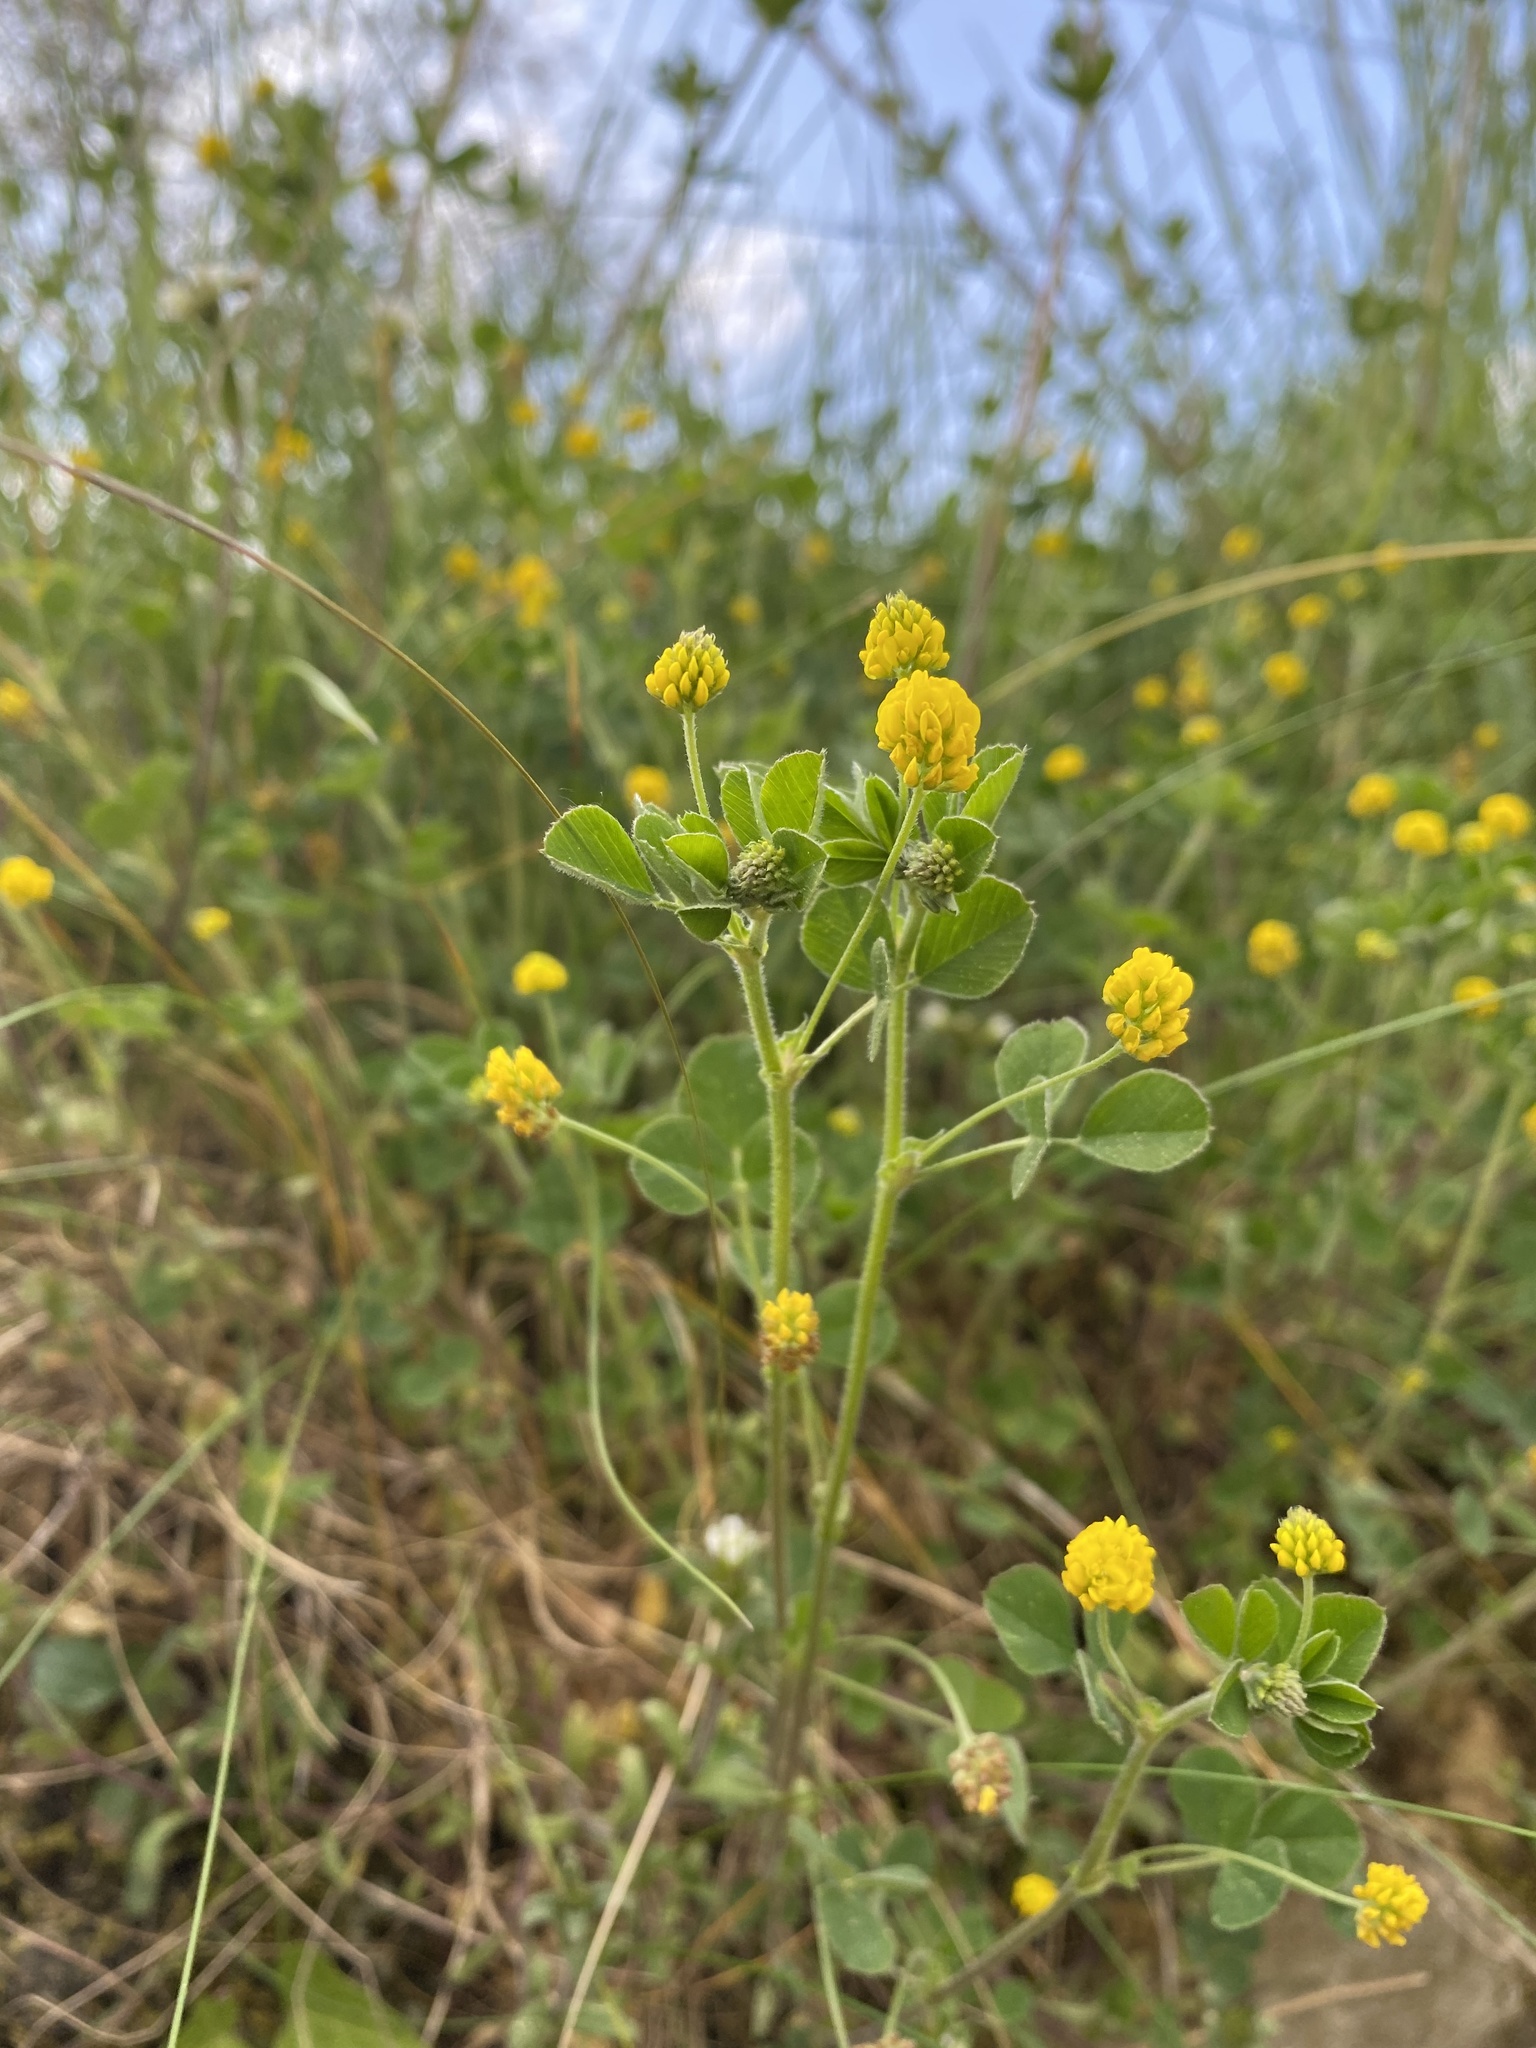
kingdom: Plantae
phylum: Tracheophyta
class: Magnoliopsida
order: Fabales
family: Fabaceae
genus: Medicago
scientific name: Medicago lupulina
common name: Black medick
